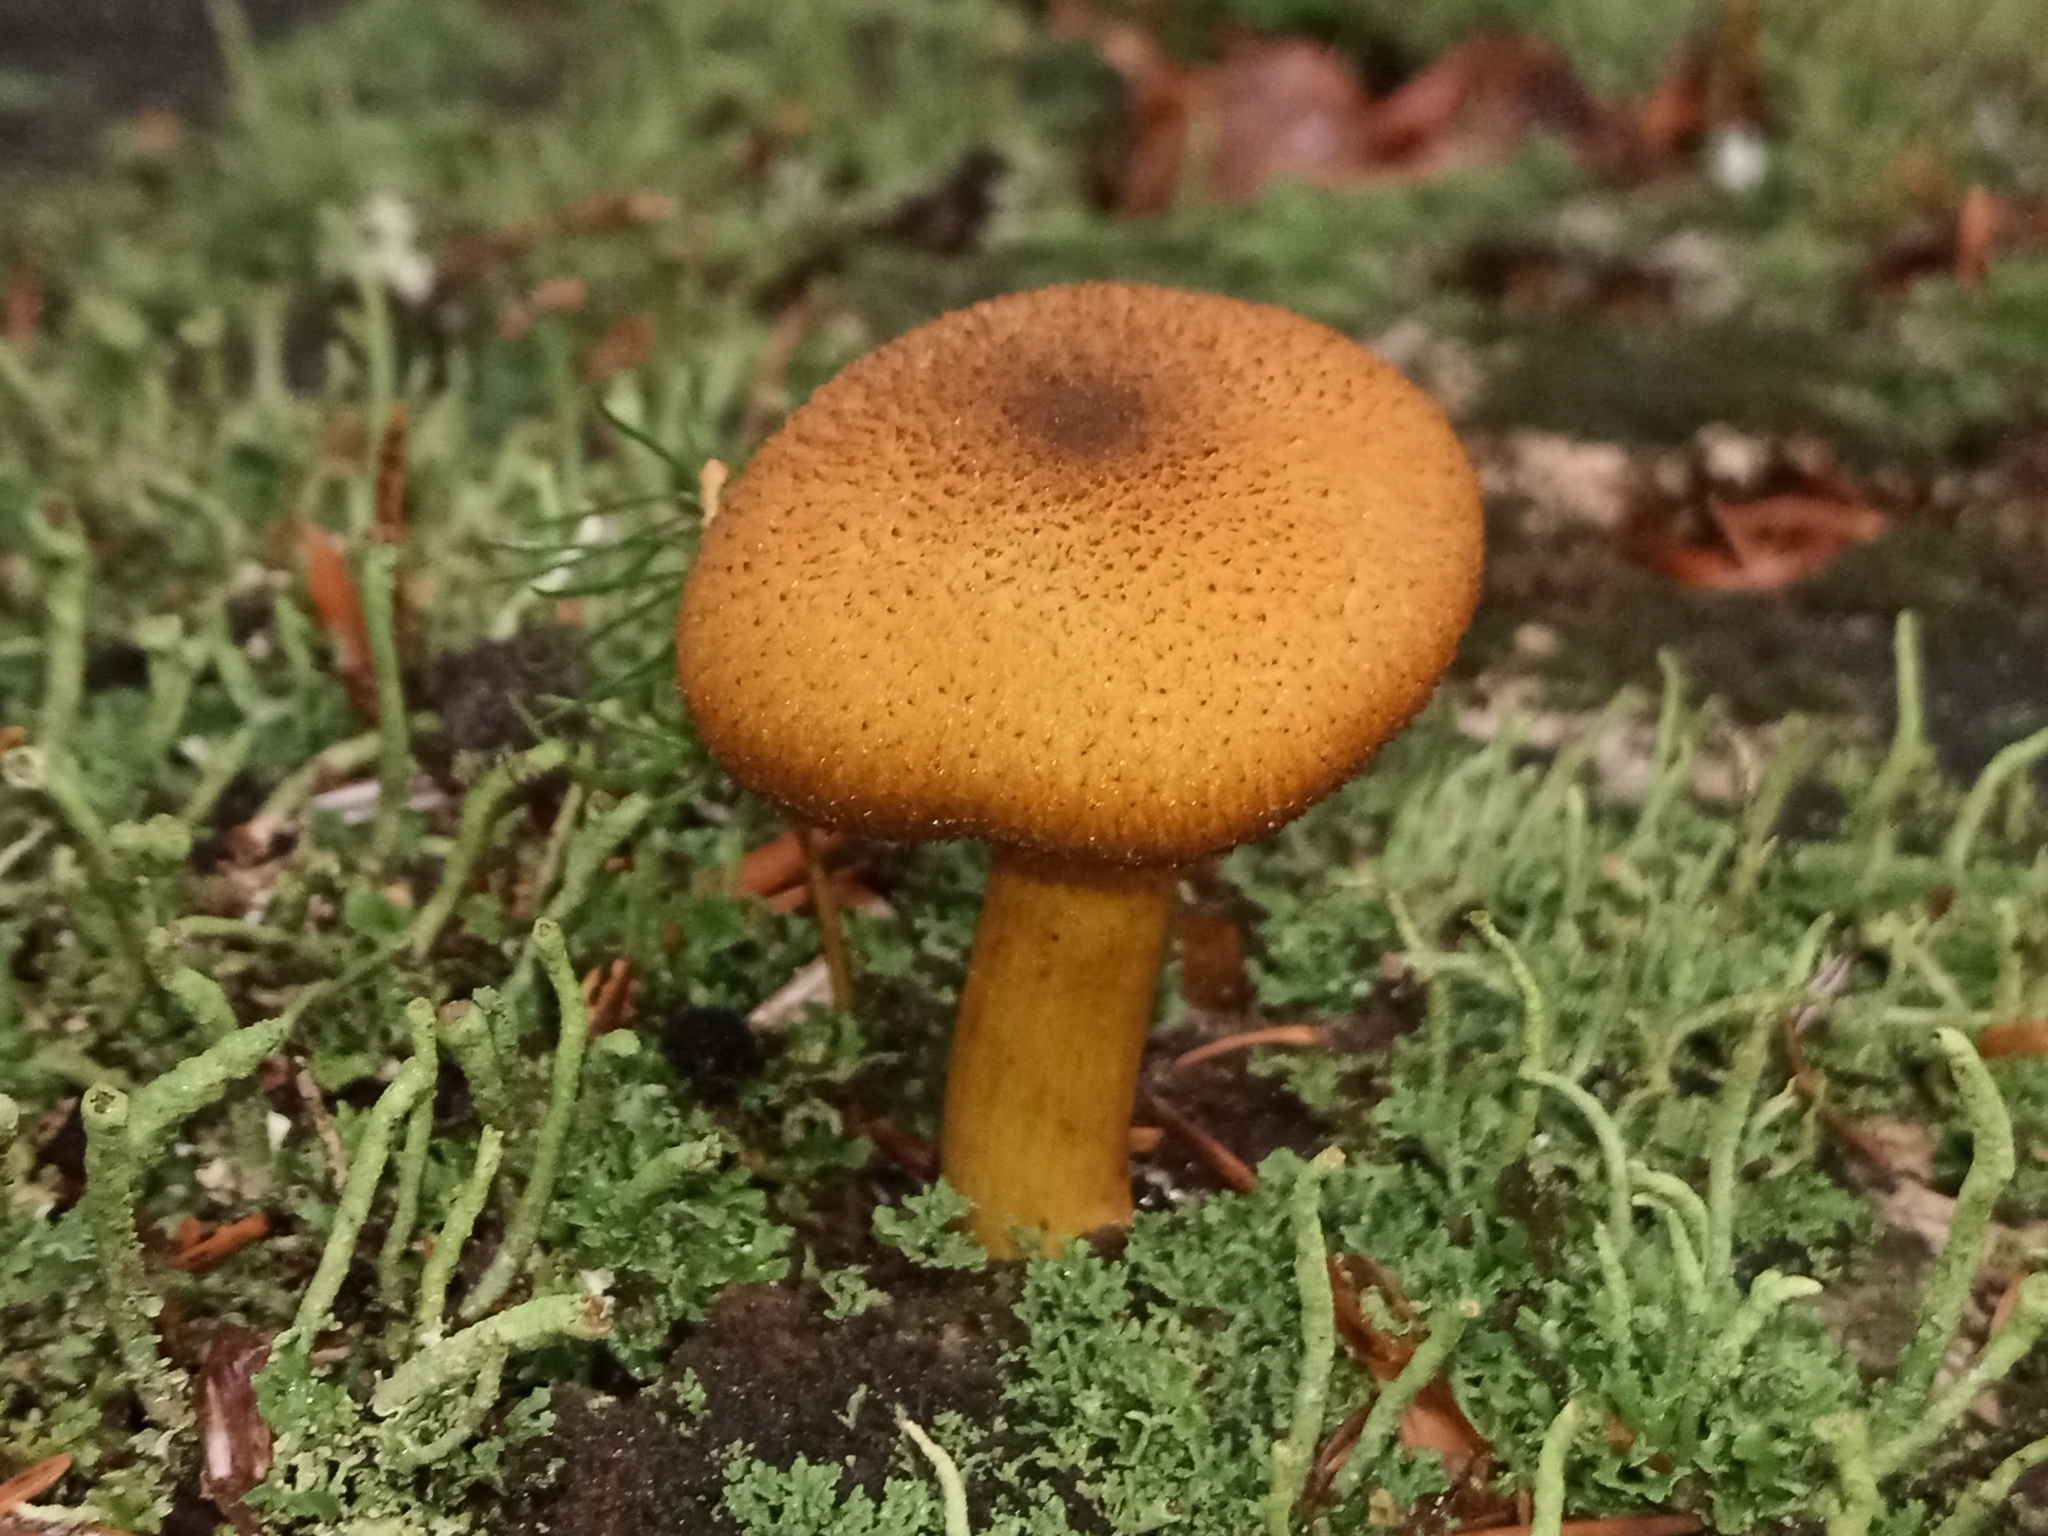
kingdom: Fungi
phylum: Basidiomycota
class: Agaricomycetes
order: Agaricales
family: Tricholomataceae
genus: Tricholomopsis
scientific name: Tricholomopsis decora
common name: Prunes and custard
